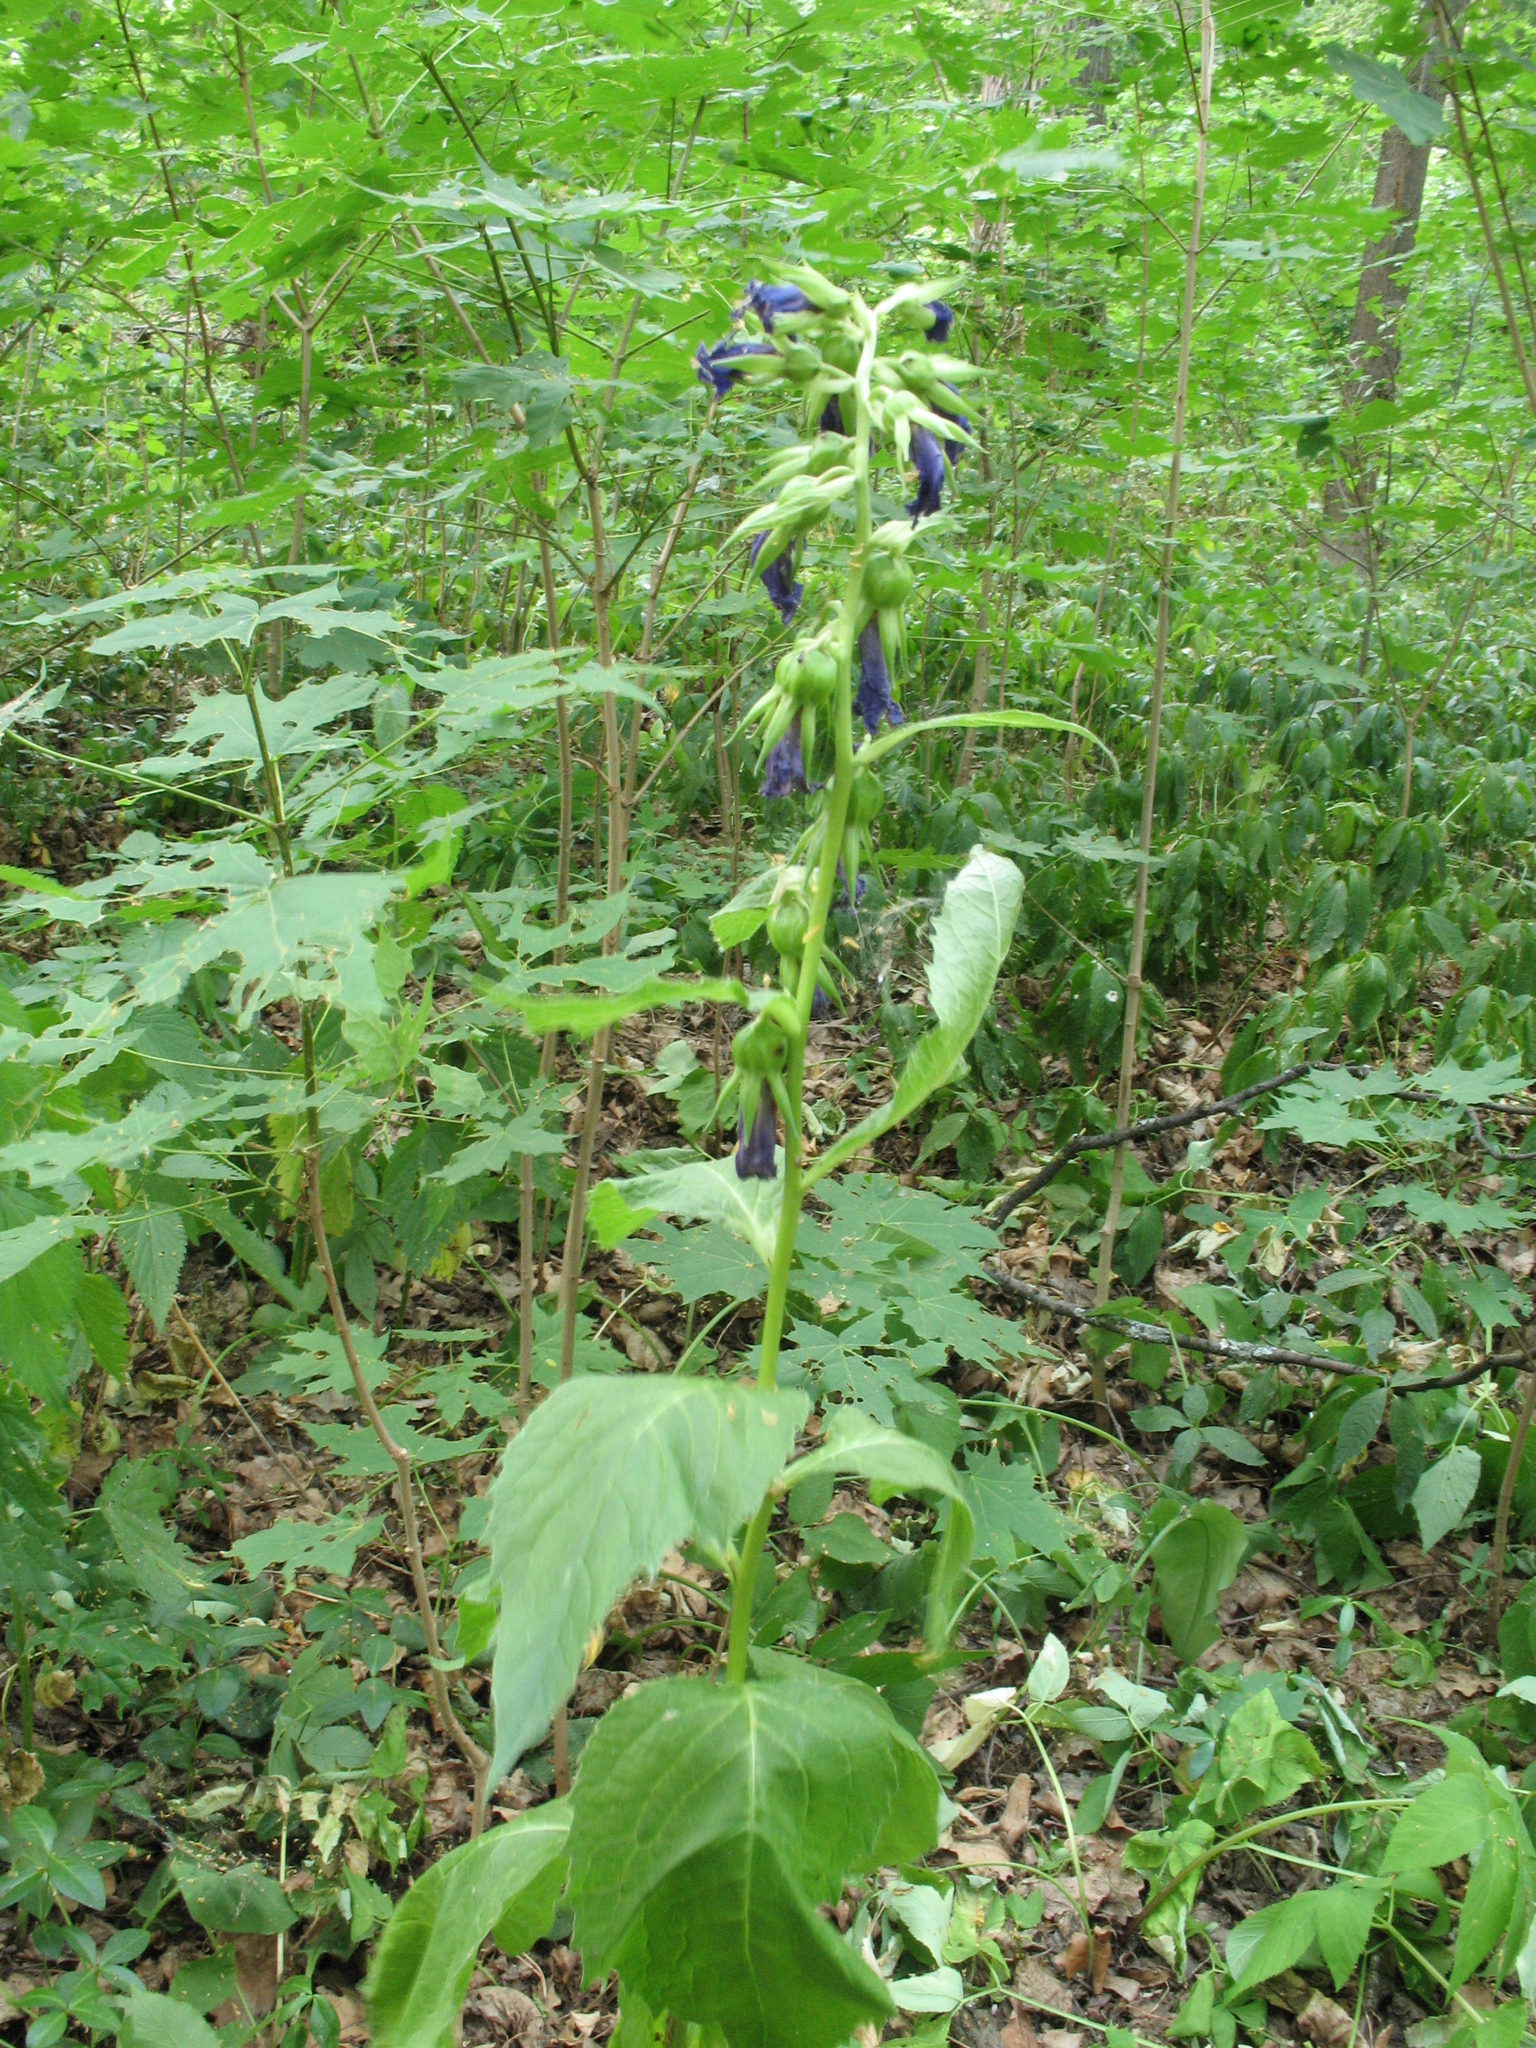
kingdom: Plantae
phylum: Tracheophyta
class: Magnoliopsida
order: Asterales
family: Campanulaceae
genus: Campanula
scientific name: Campanula latifolia
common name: Giant bellflower
